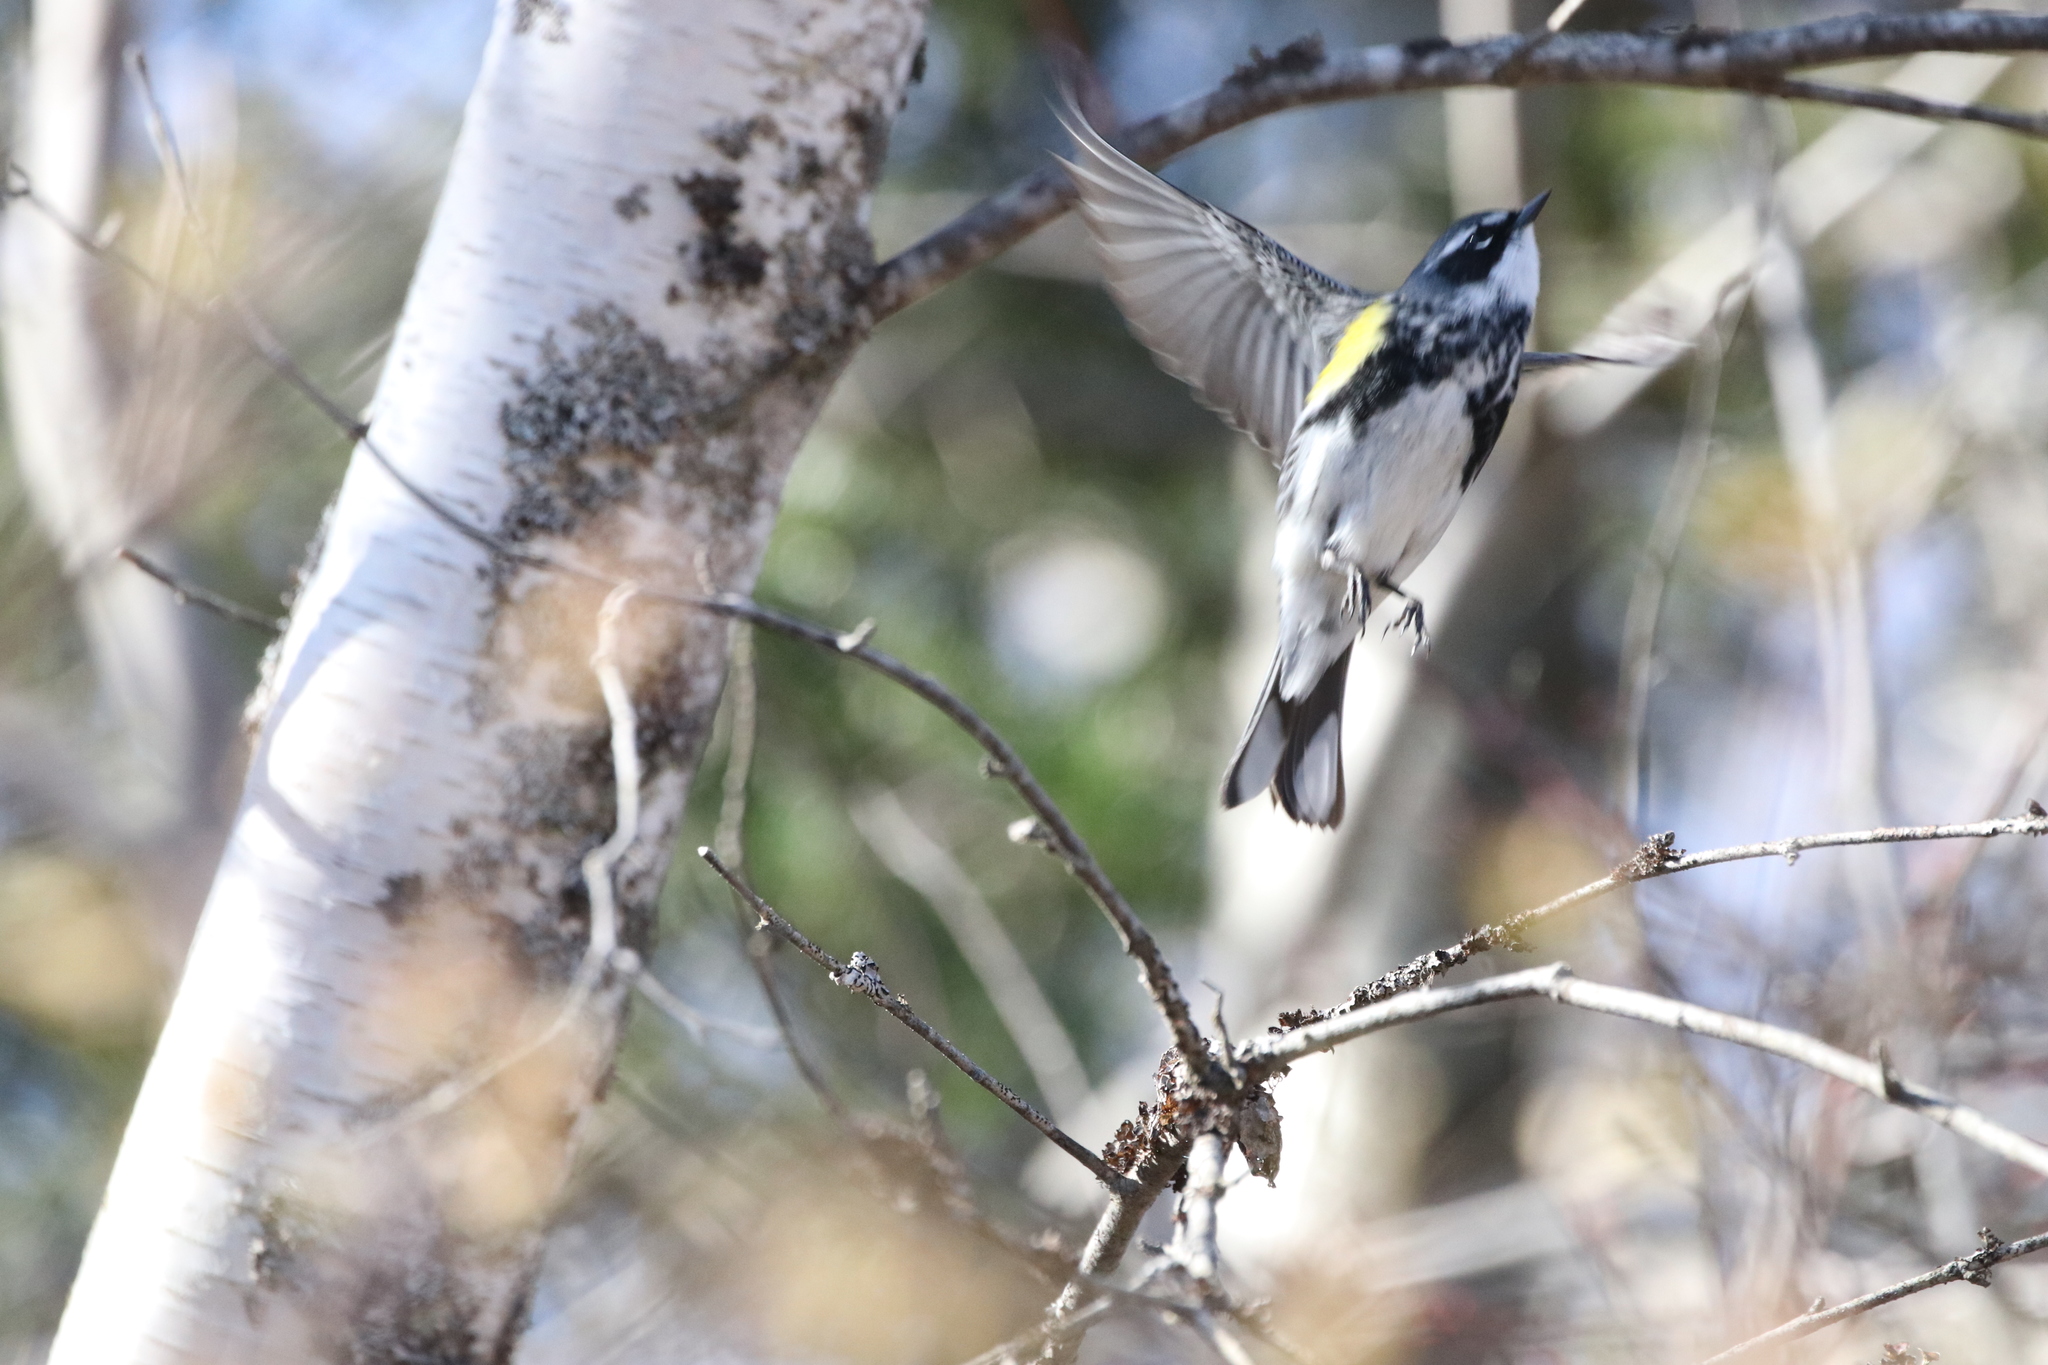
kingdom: Animalia
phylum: Chordata
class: Aves
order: Passeriformes
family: Parulidae
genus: Setophaga
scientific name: Setophaga coronata
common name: Myrtle warbler
